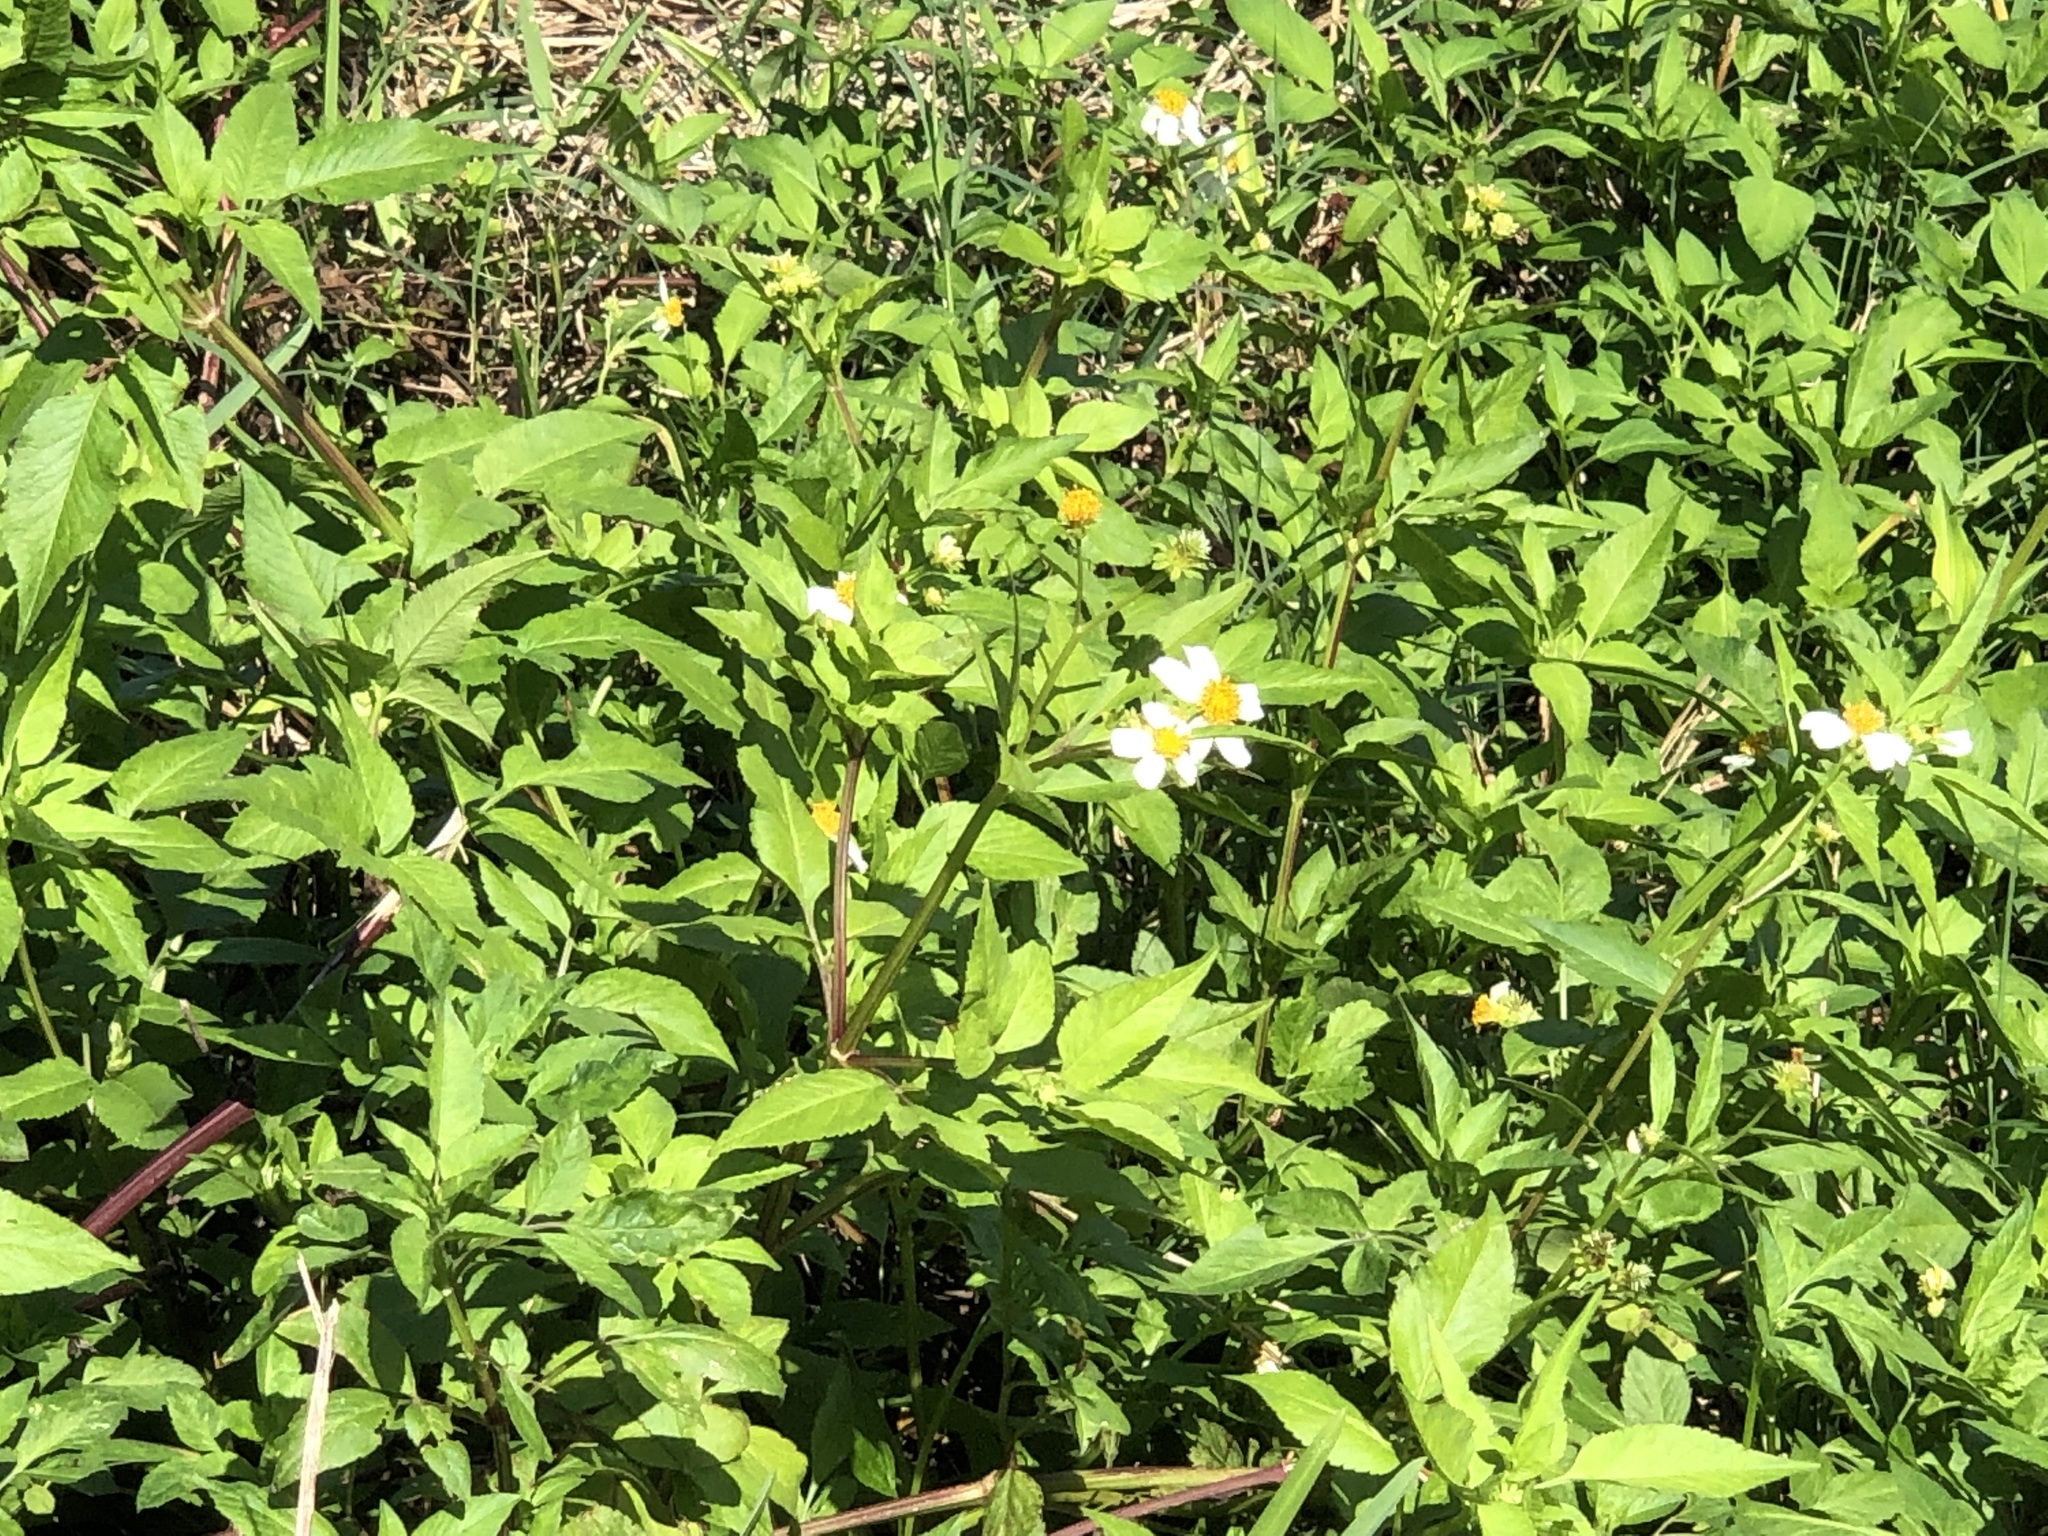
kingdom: Plantae
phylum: Tracheophyta
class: Magnoliopsida
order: Asterales
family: Asteraceae
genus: Bidens
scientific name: Bidens alba
